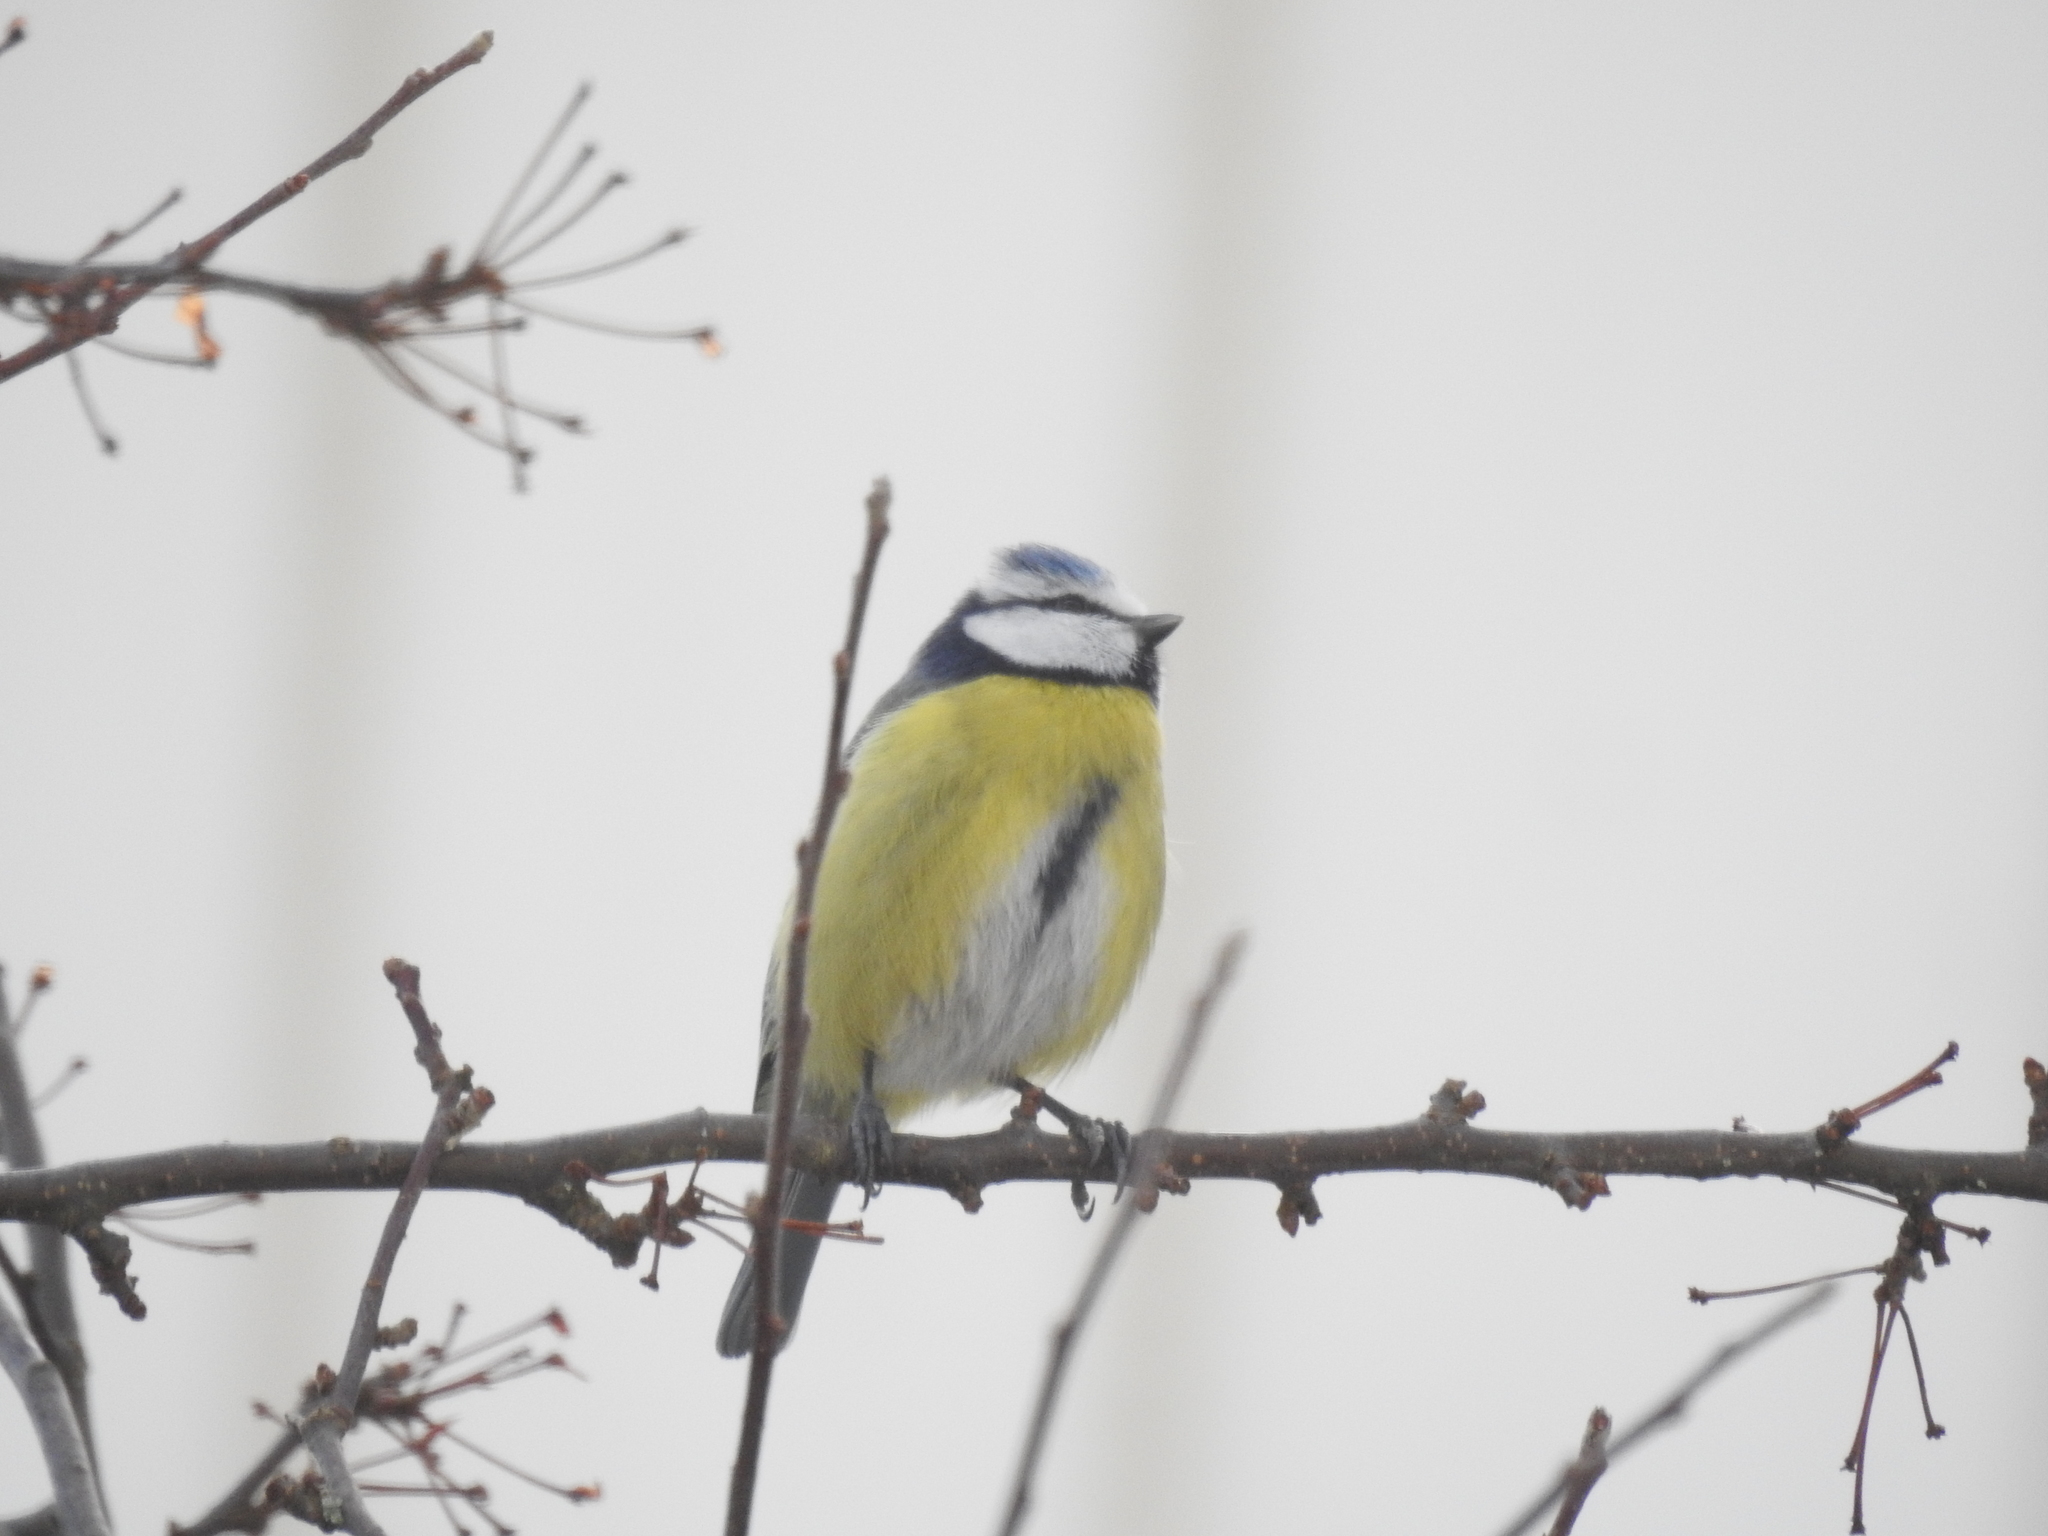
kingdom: Animalia
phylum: Chordata
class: Aves
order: Passeriformes
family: Paridae
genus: Cyanistes
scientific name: Cyanistes caeruleus
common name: Eurasian blue tit
